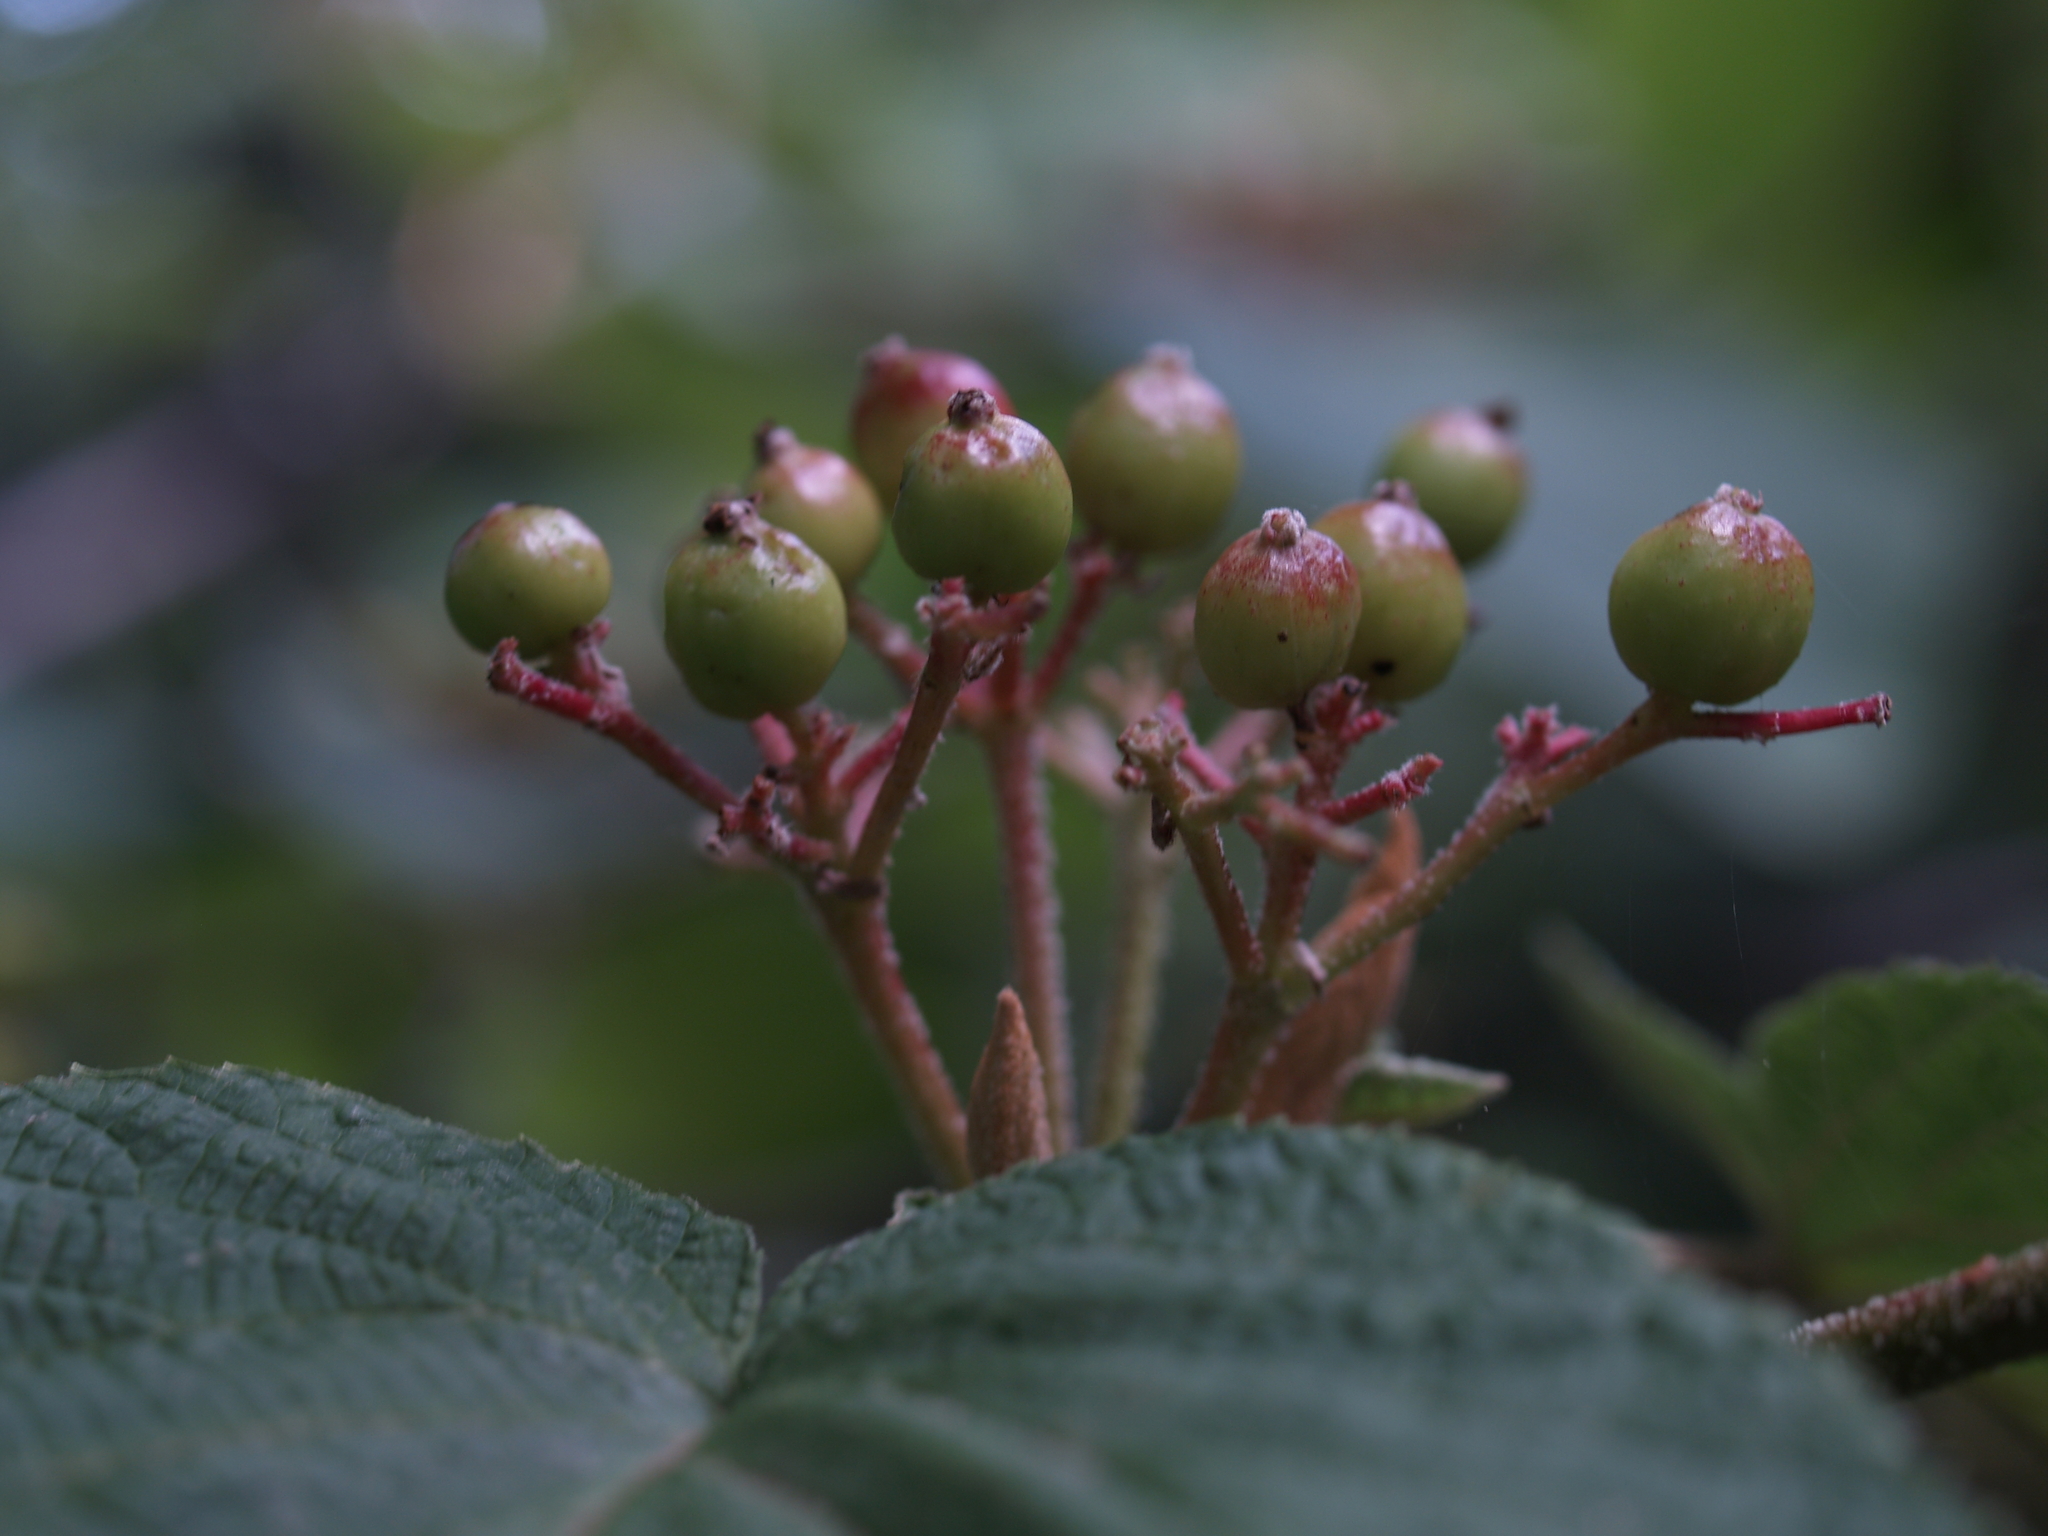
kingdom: Plantae
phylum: Tracheophyta
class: Magnoliopsida
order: Dipsacales
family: Viburnaceae
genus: Viburnum
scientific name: Viburnum lantanoides
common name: Hobblebush
